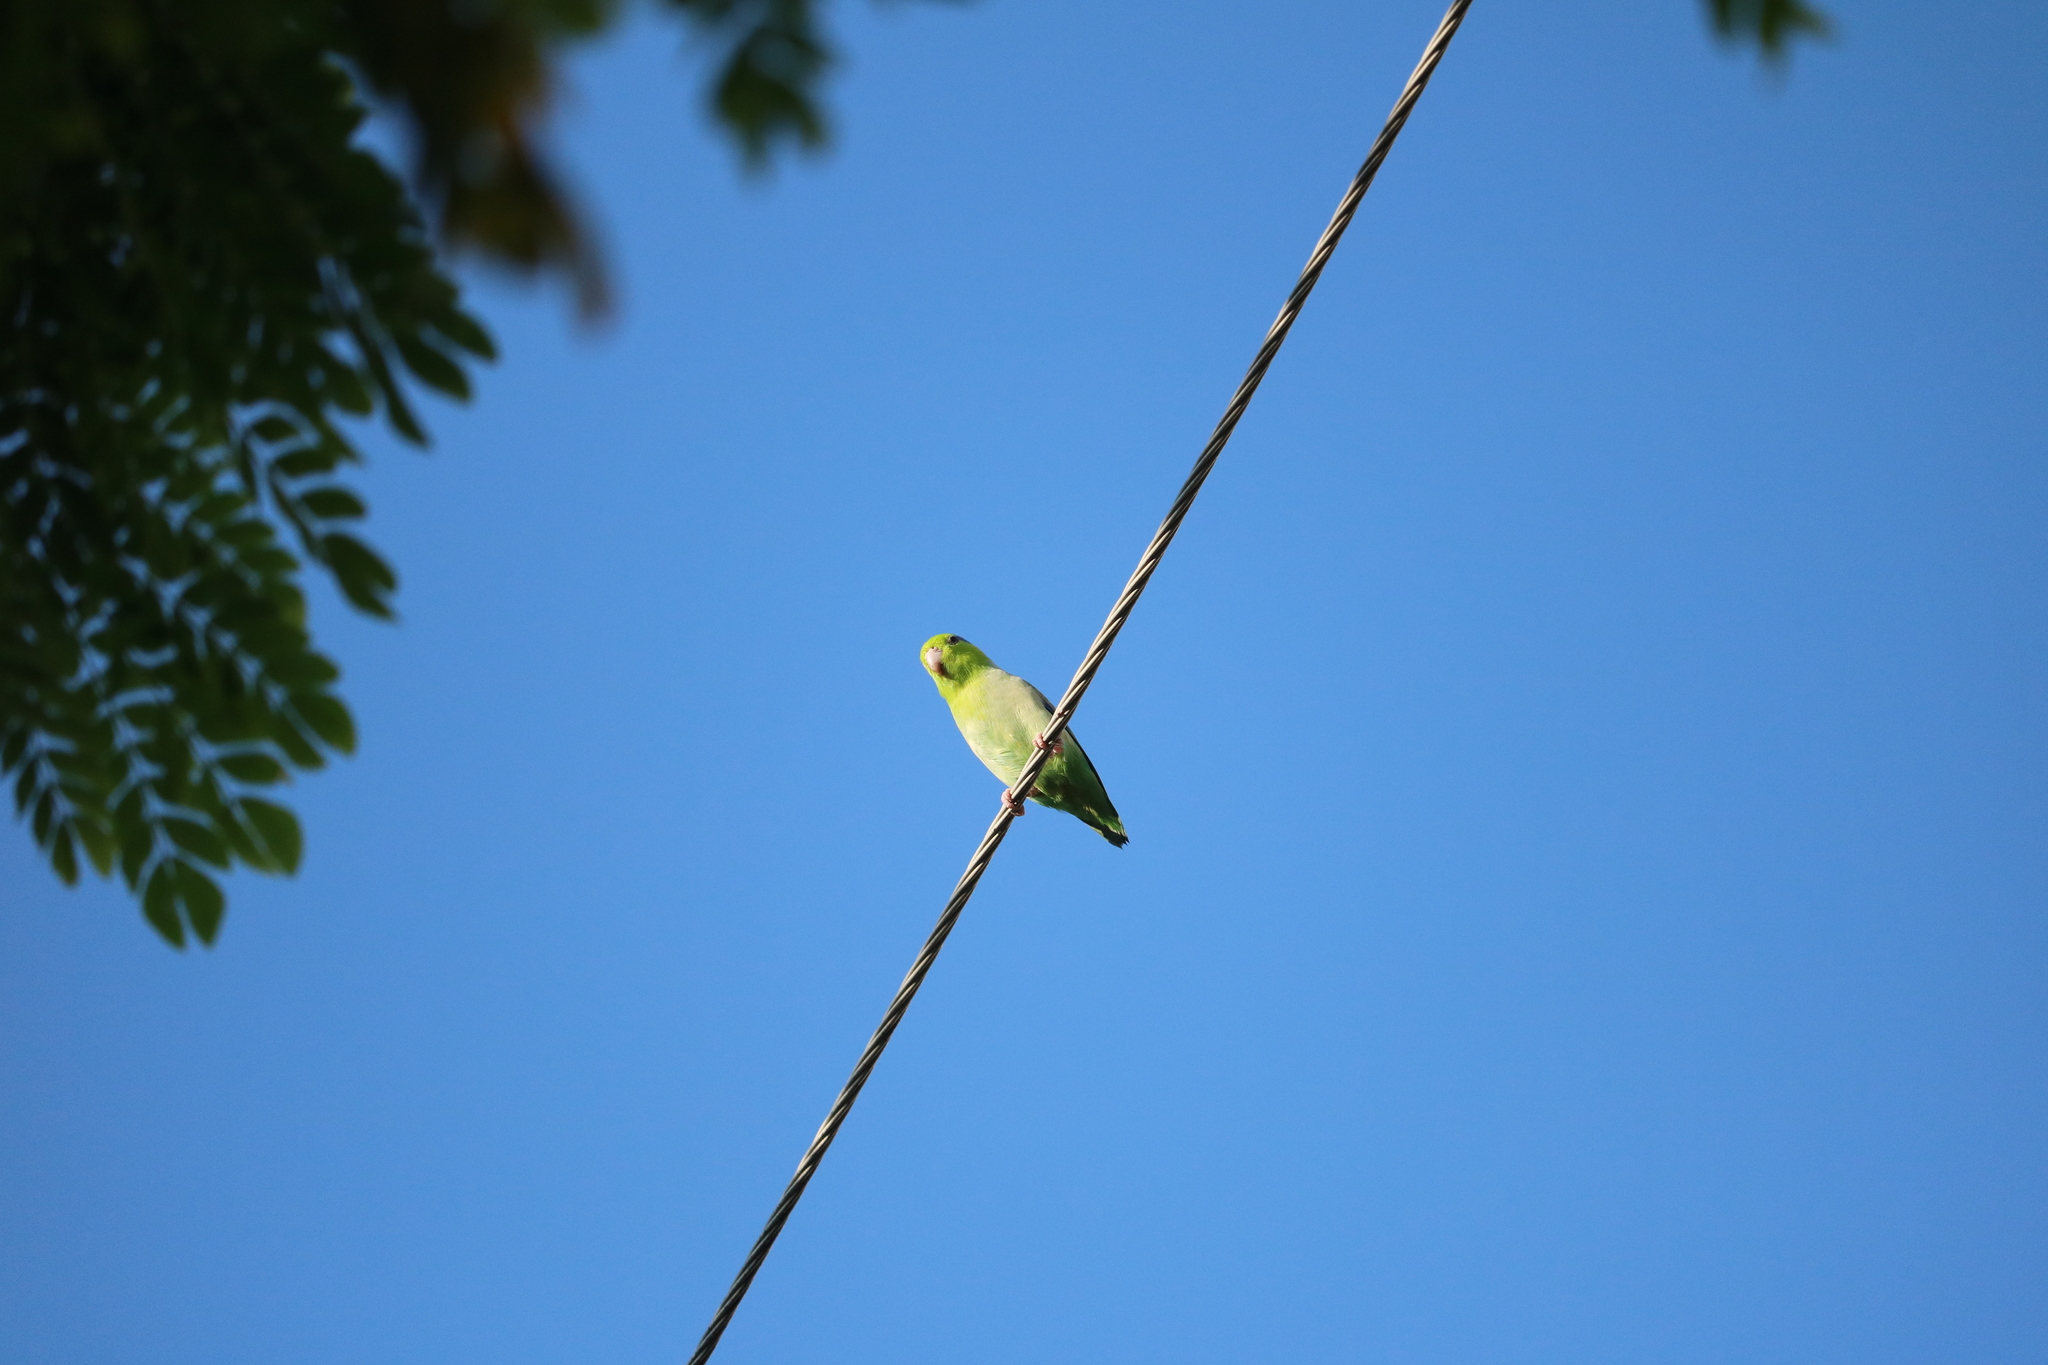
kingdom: Animalia
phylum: Chordata
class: Aves
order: Psittaciformes
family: Psittacidae
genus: Forpus
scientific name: Forpus coelestis
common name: Pacific parrotlet
